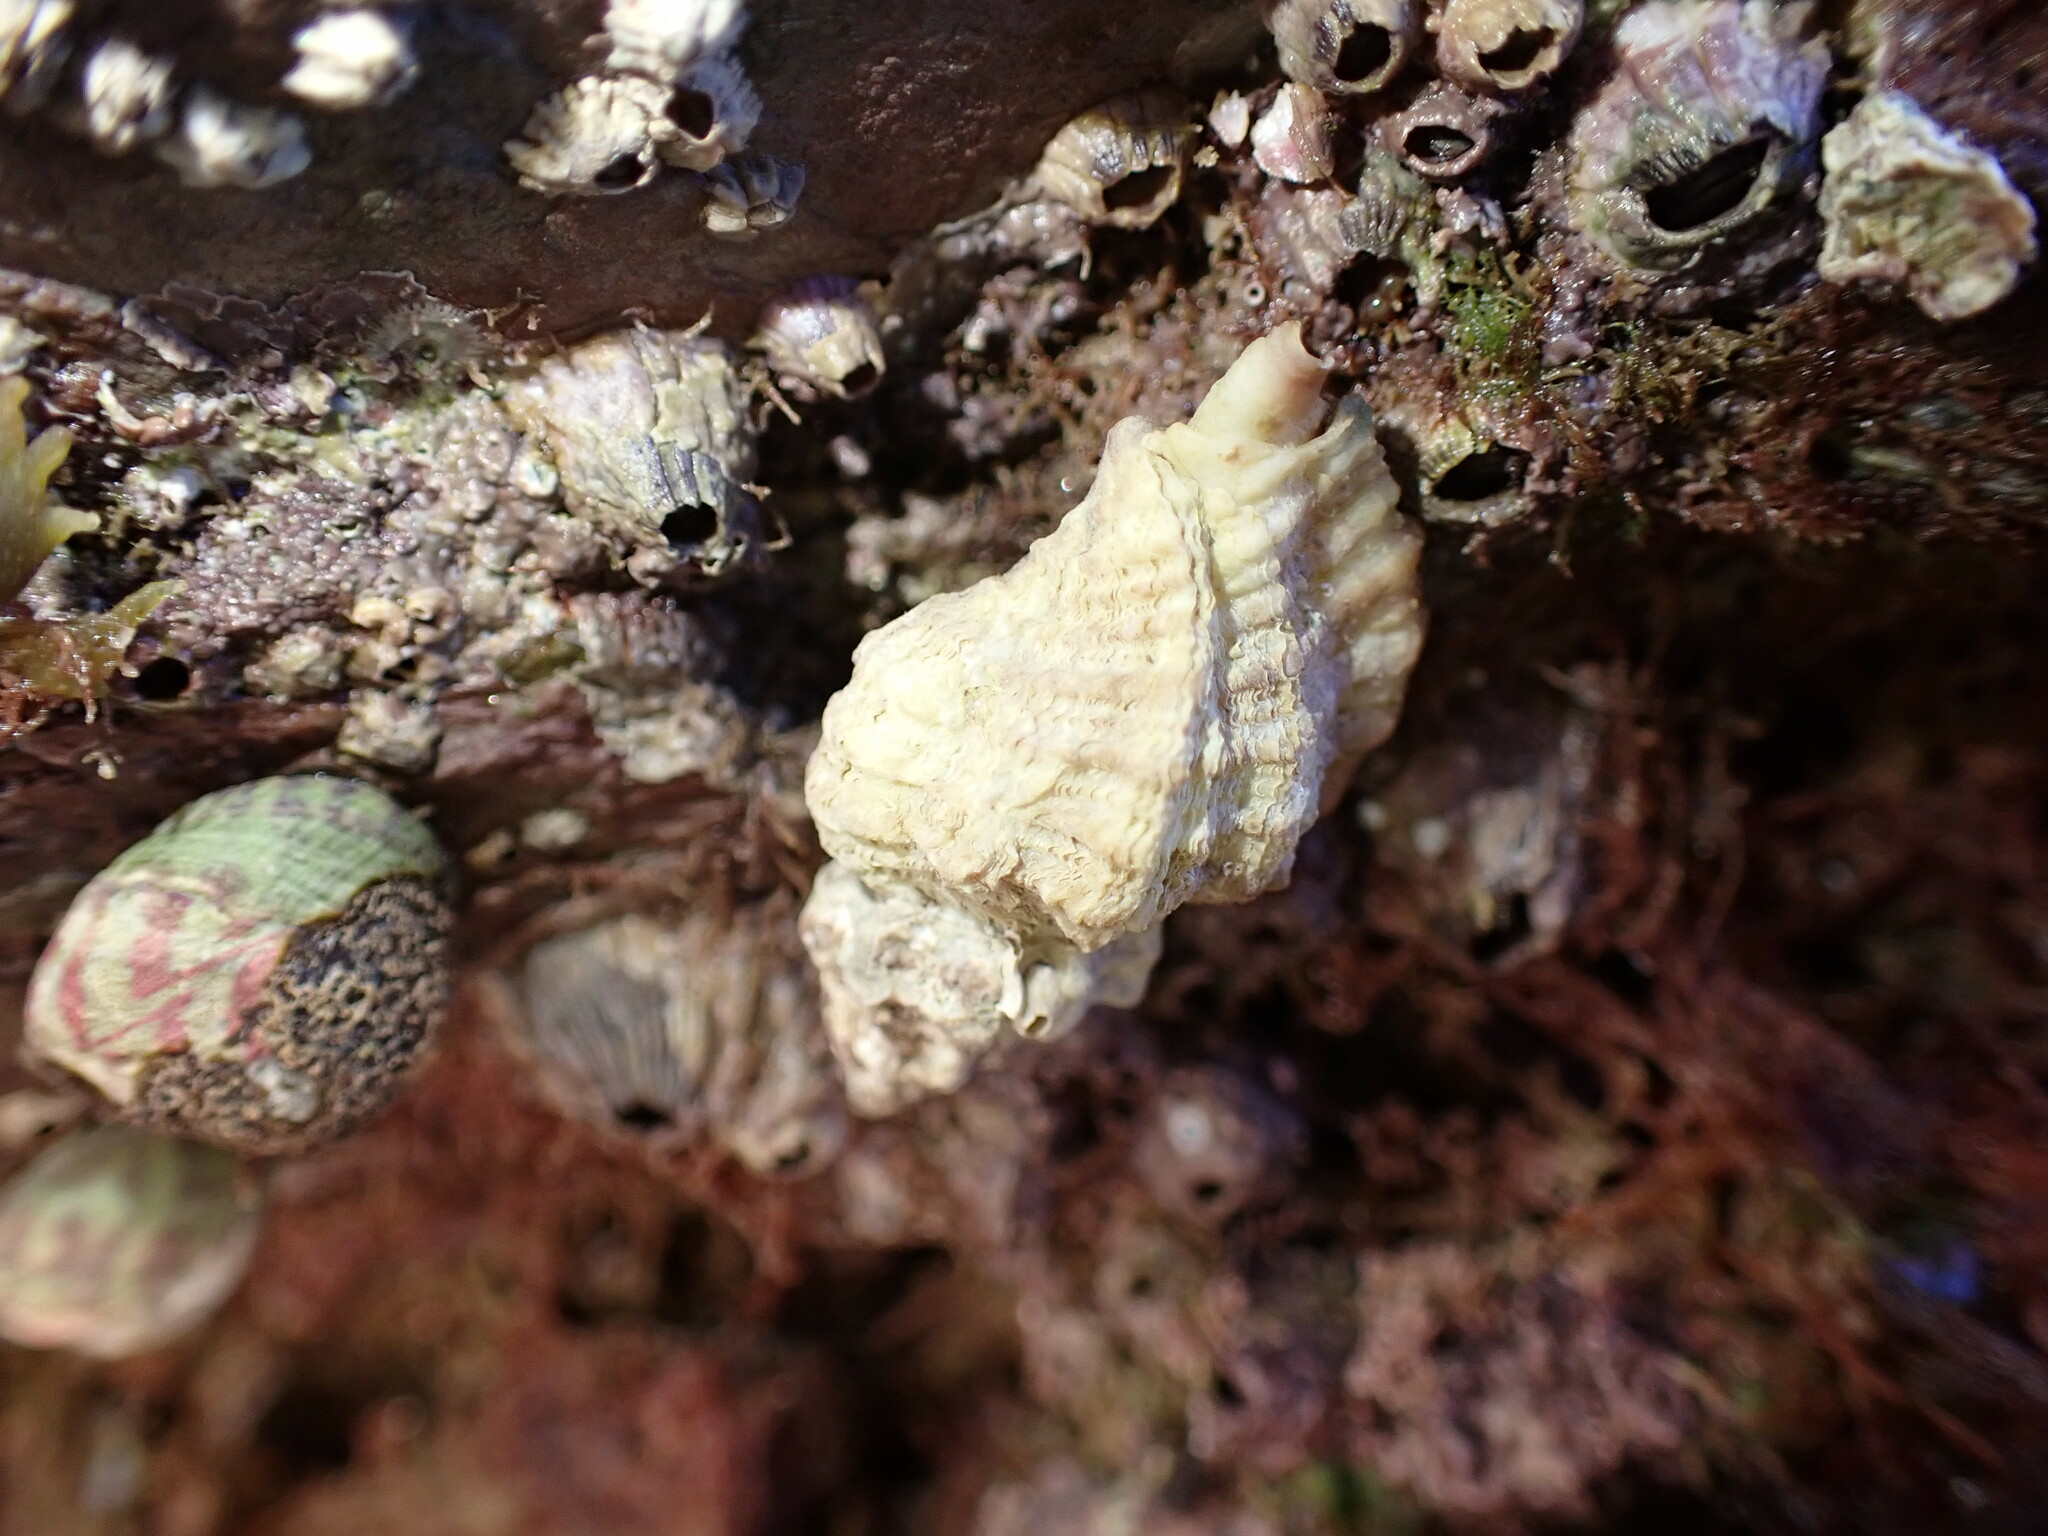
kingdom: Animalia
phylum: Mollusca
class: Gastropoda
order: Neogastropoda
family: Muricidae
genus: Ocenebra
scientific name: Ocenebra erinaceus
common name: European sting winkle
